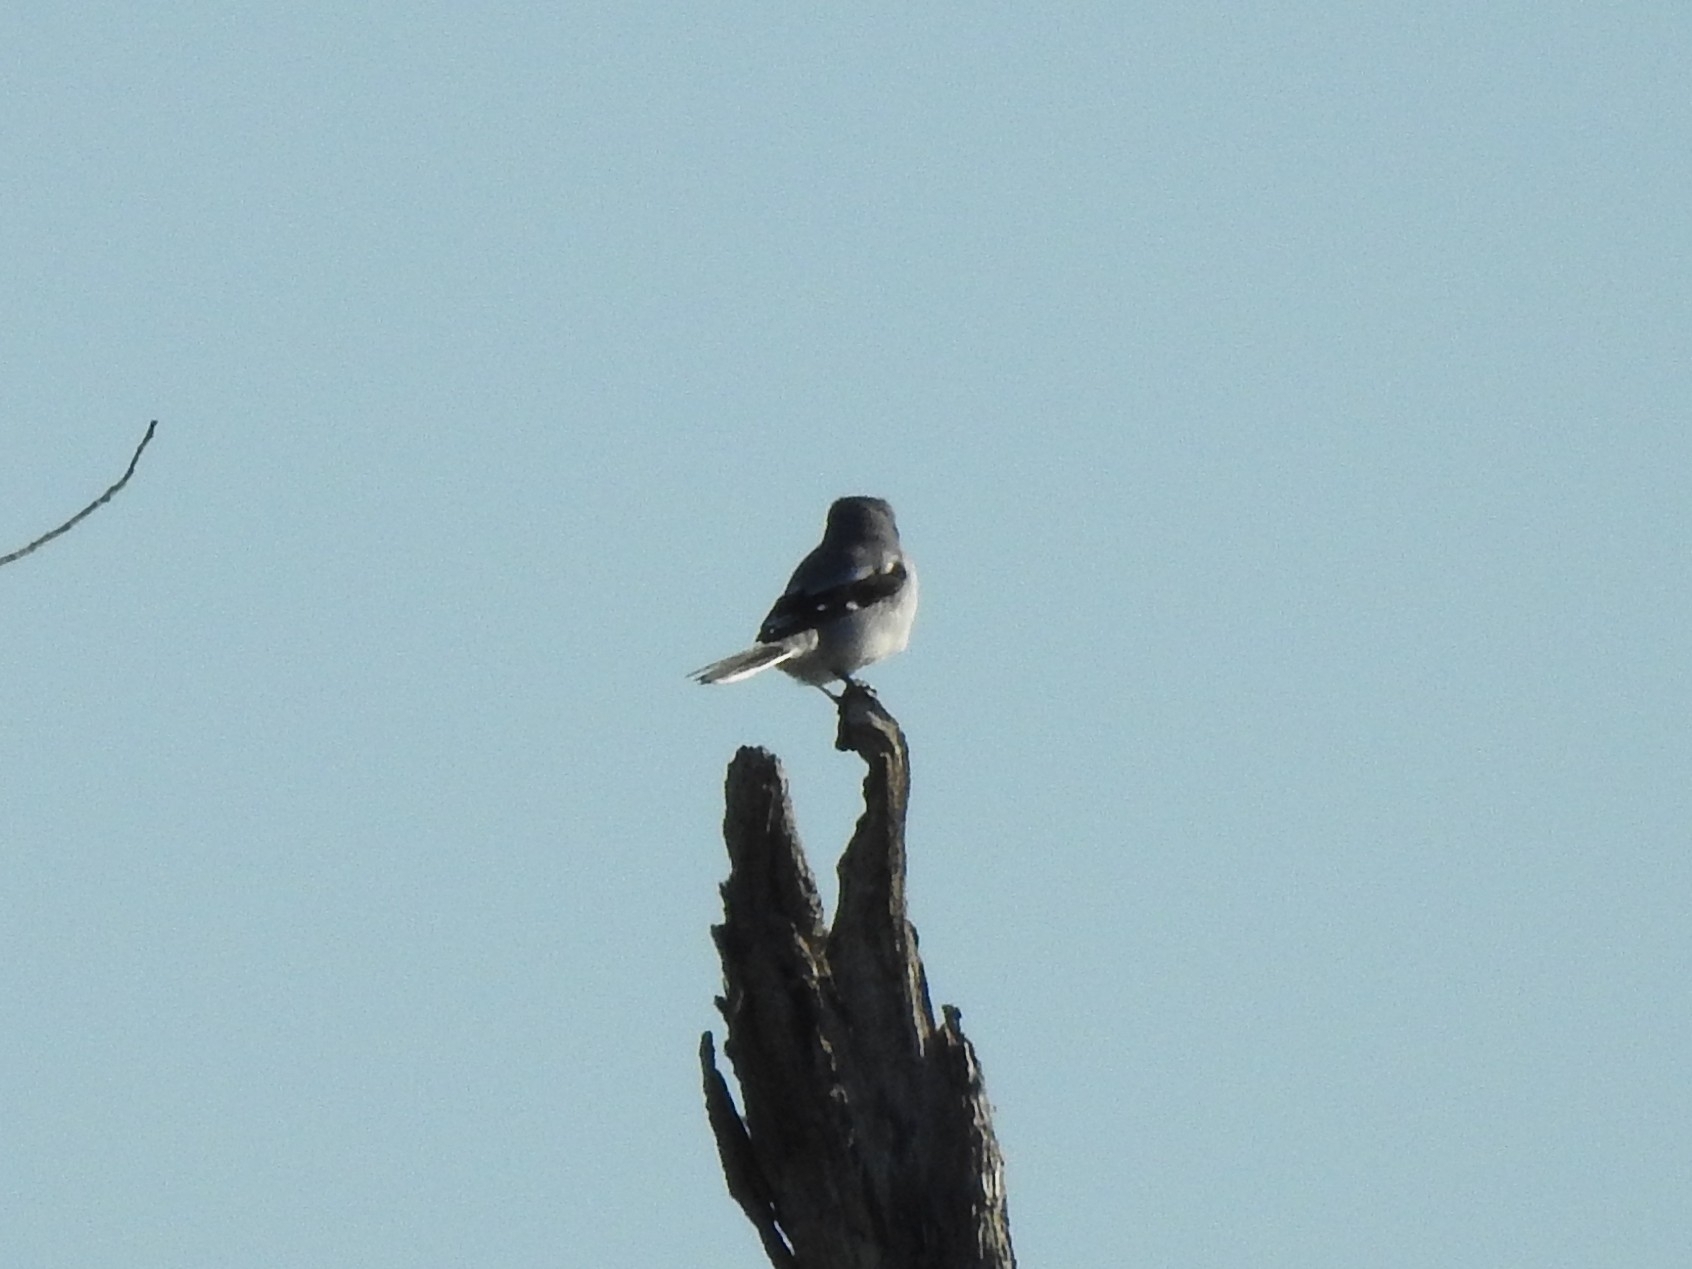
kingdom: Animalia
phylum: Chordata
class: Aves
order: Passeriformes
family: Laniidae
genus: Lanius
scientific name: Lanius ludovicianus
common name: Loggerhead shrike
